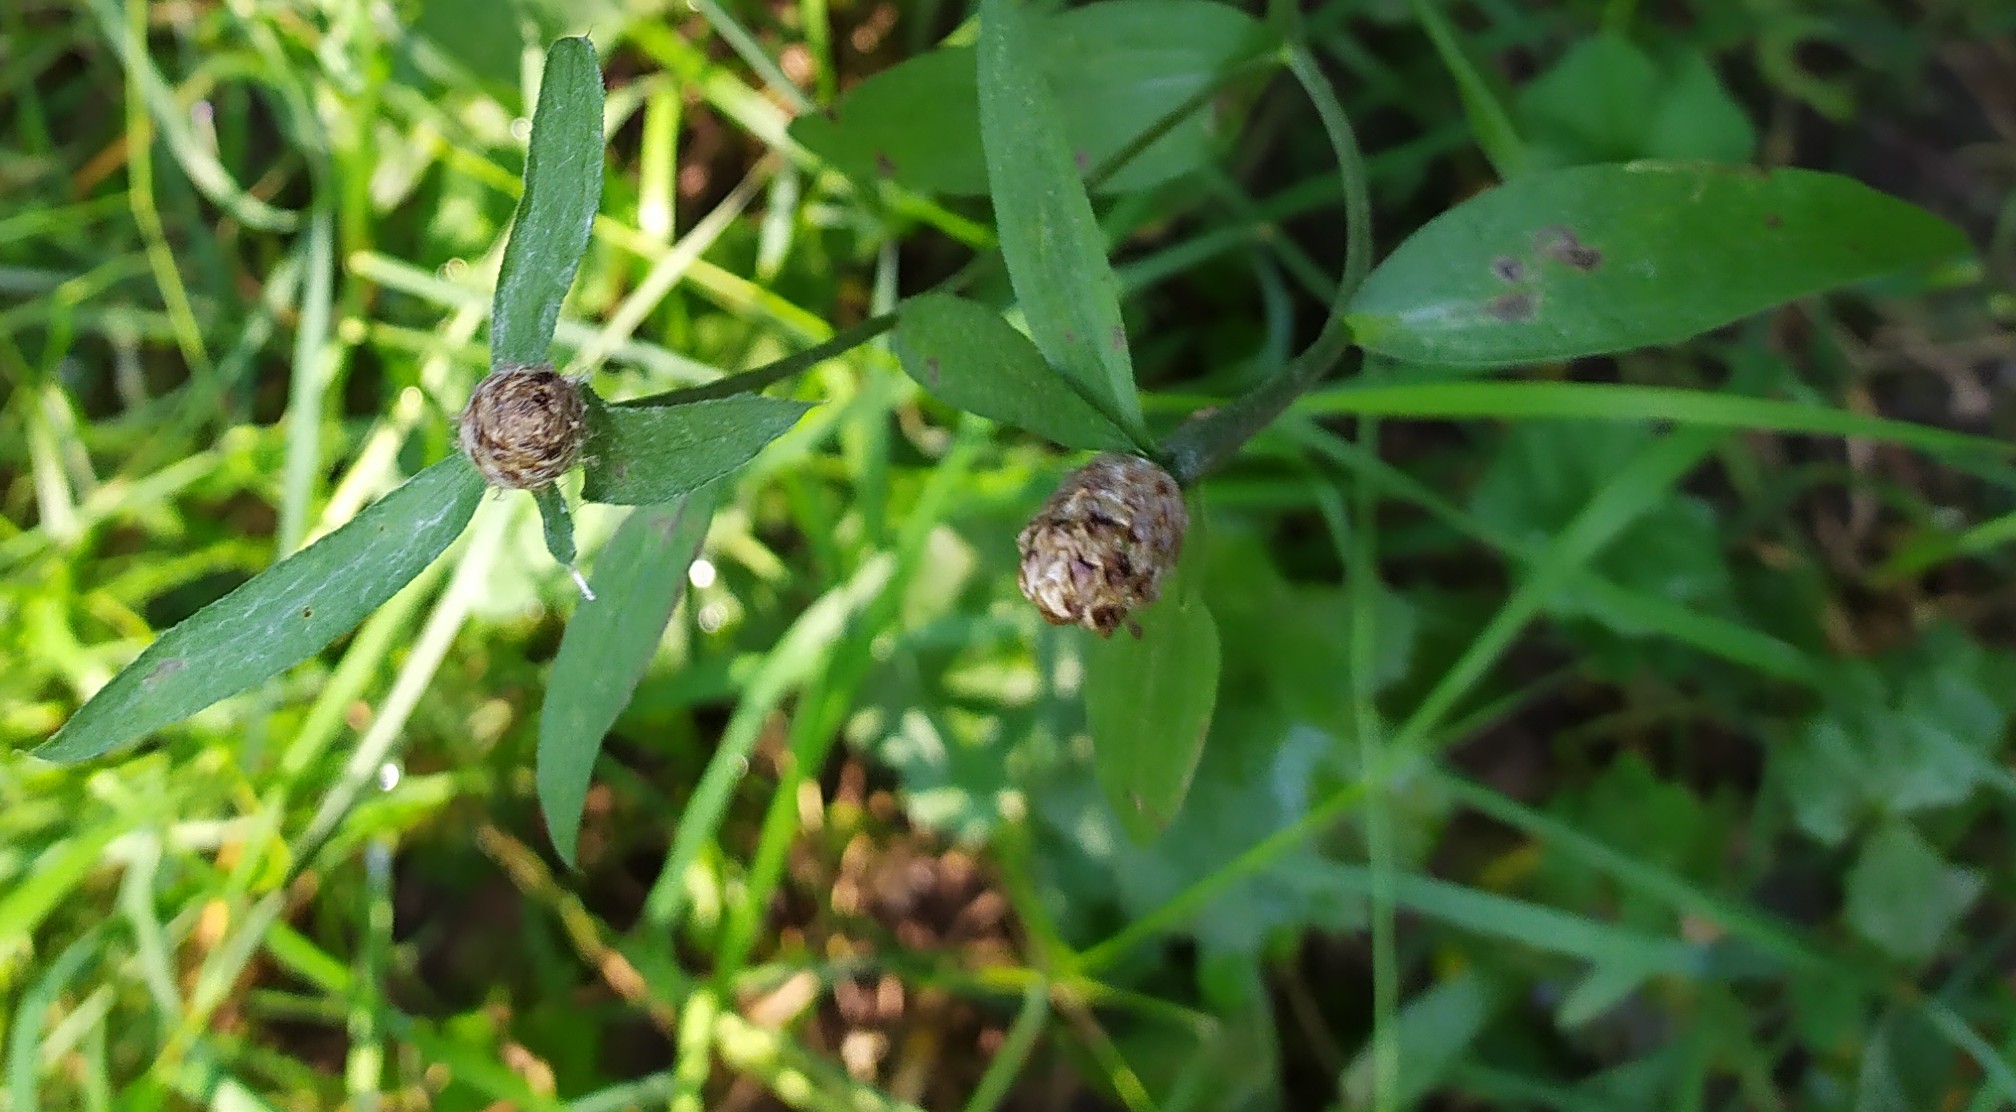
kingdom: Plantae
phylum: Tracheophyta
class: Magnoliopsida
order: Asterales
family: Asteraceae
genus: Centaurea
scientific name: Centaurea jacea
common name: Brown knapweed
